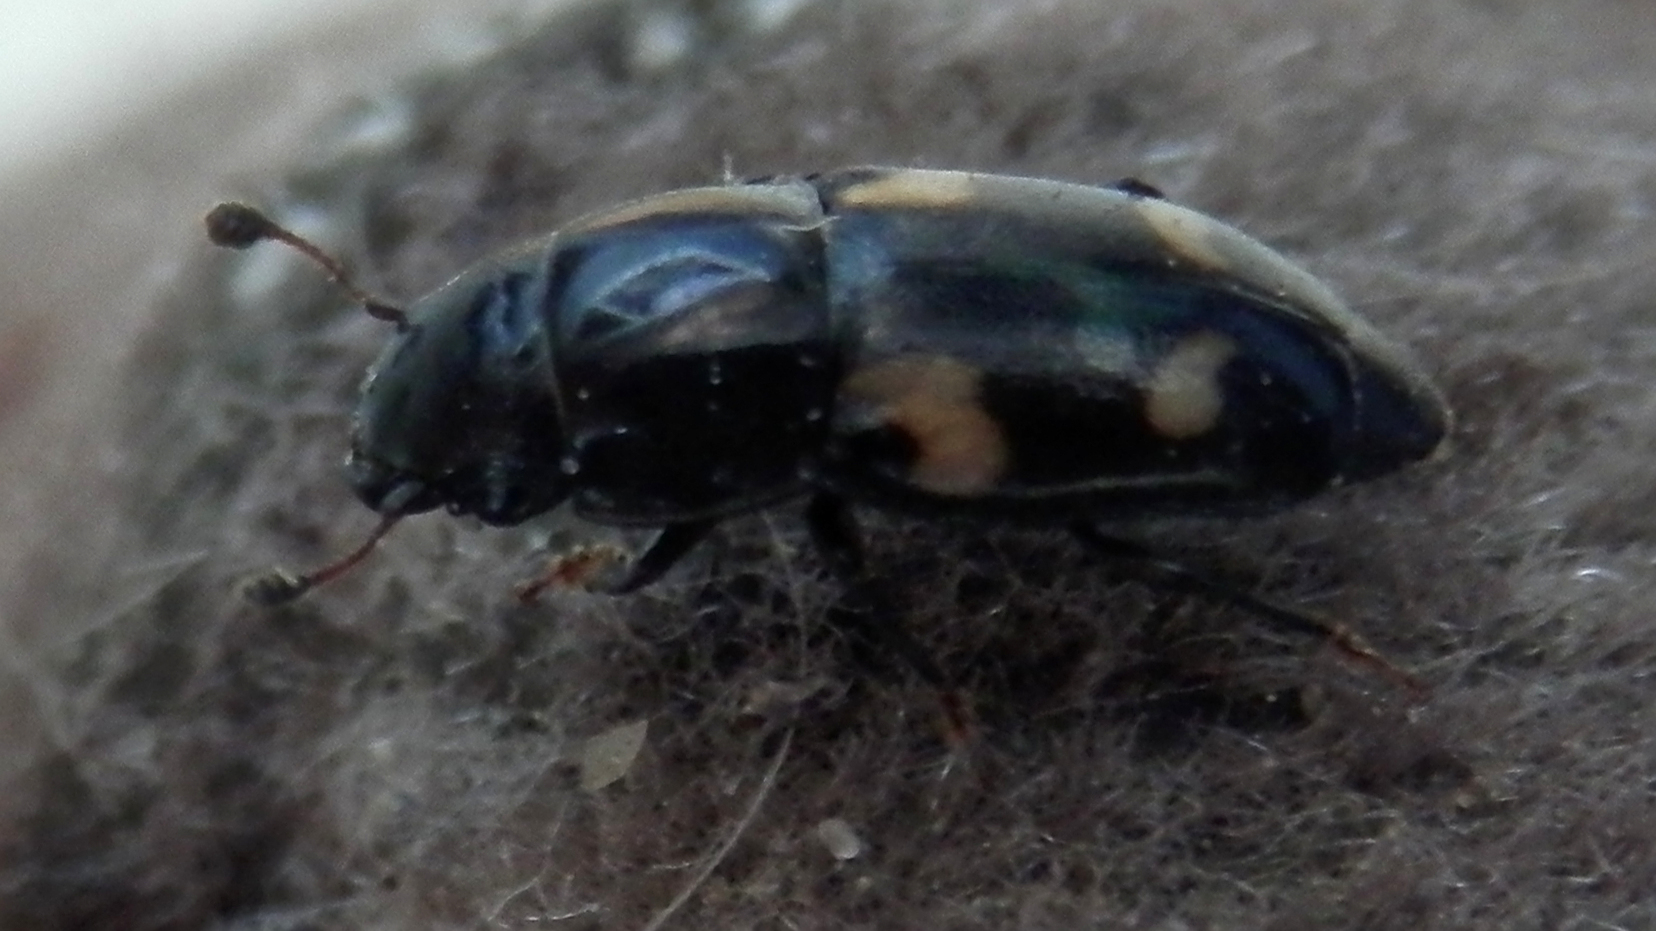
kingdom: Animalia
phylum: Arthropoda
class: Insecta
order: Coleoptera
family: Nitidulidae
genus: Glischrochilus
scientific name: Glischrochilus quadrisignatus
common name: Picnic beetle
